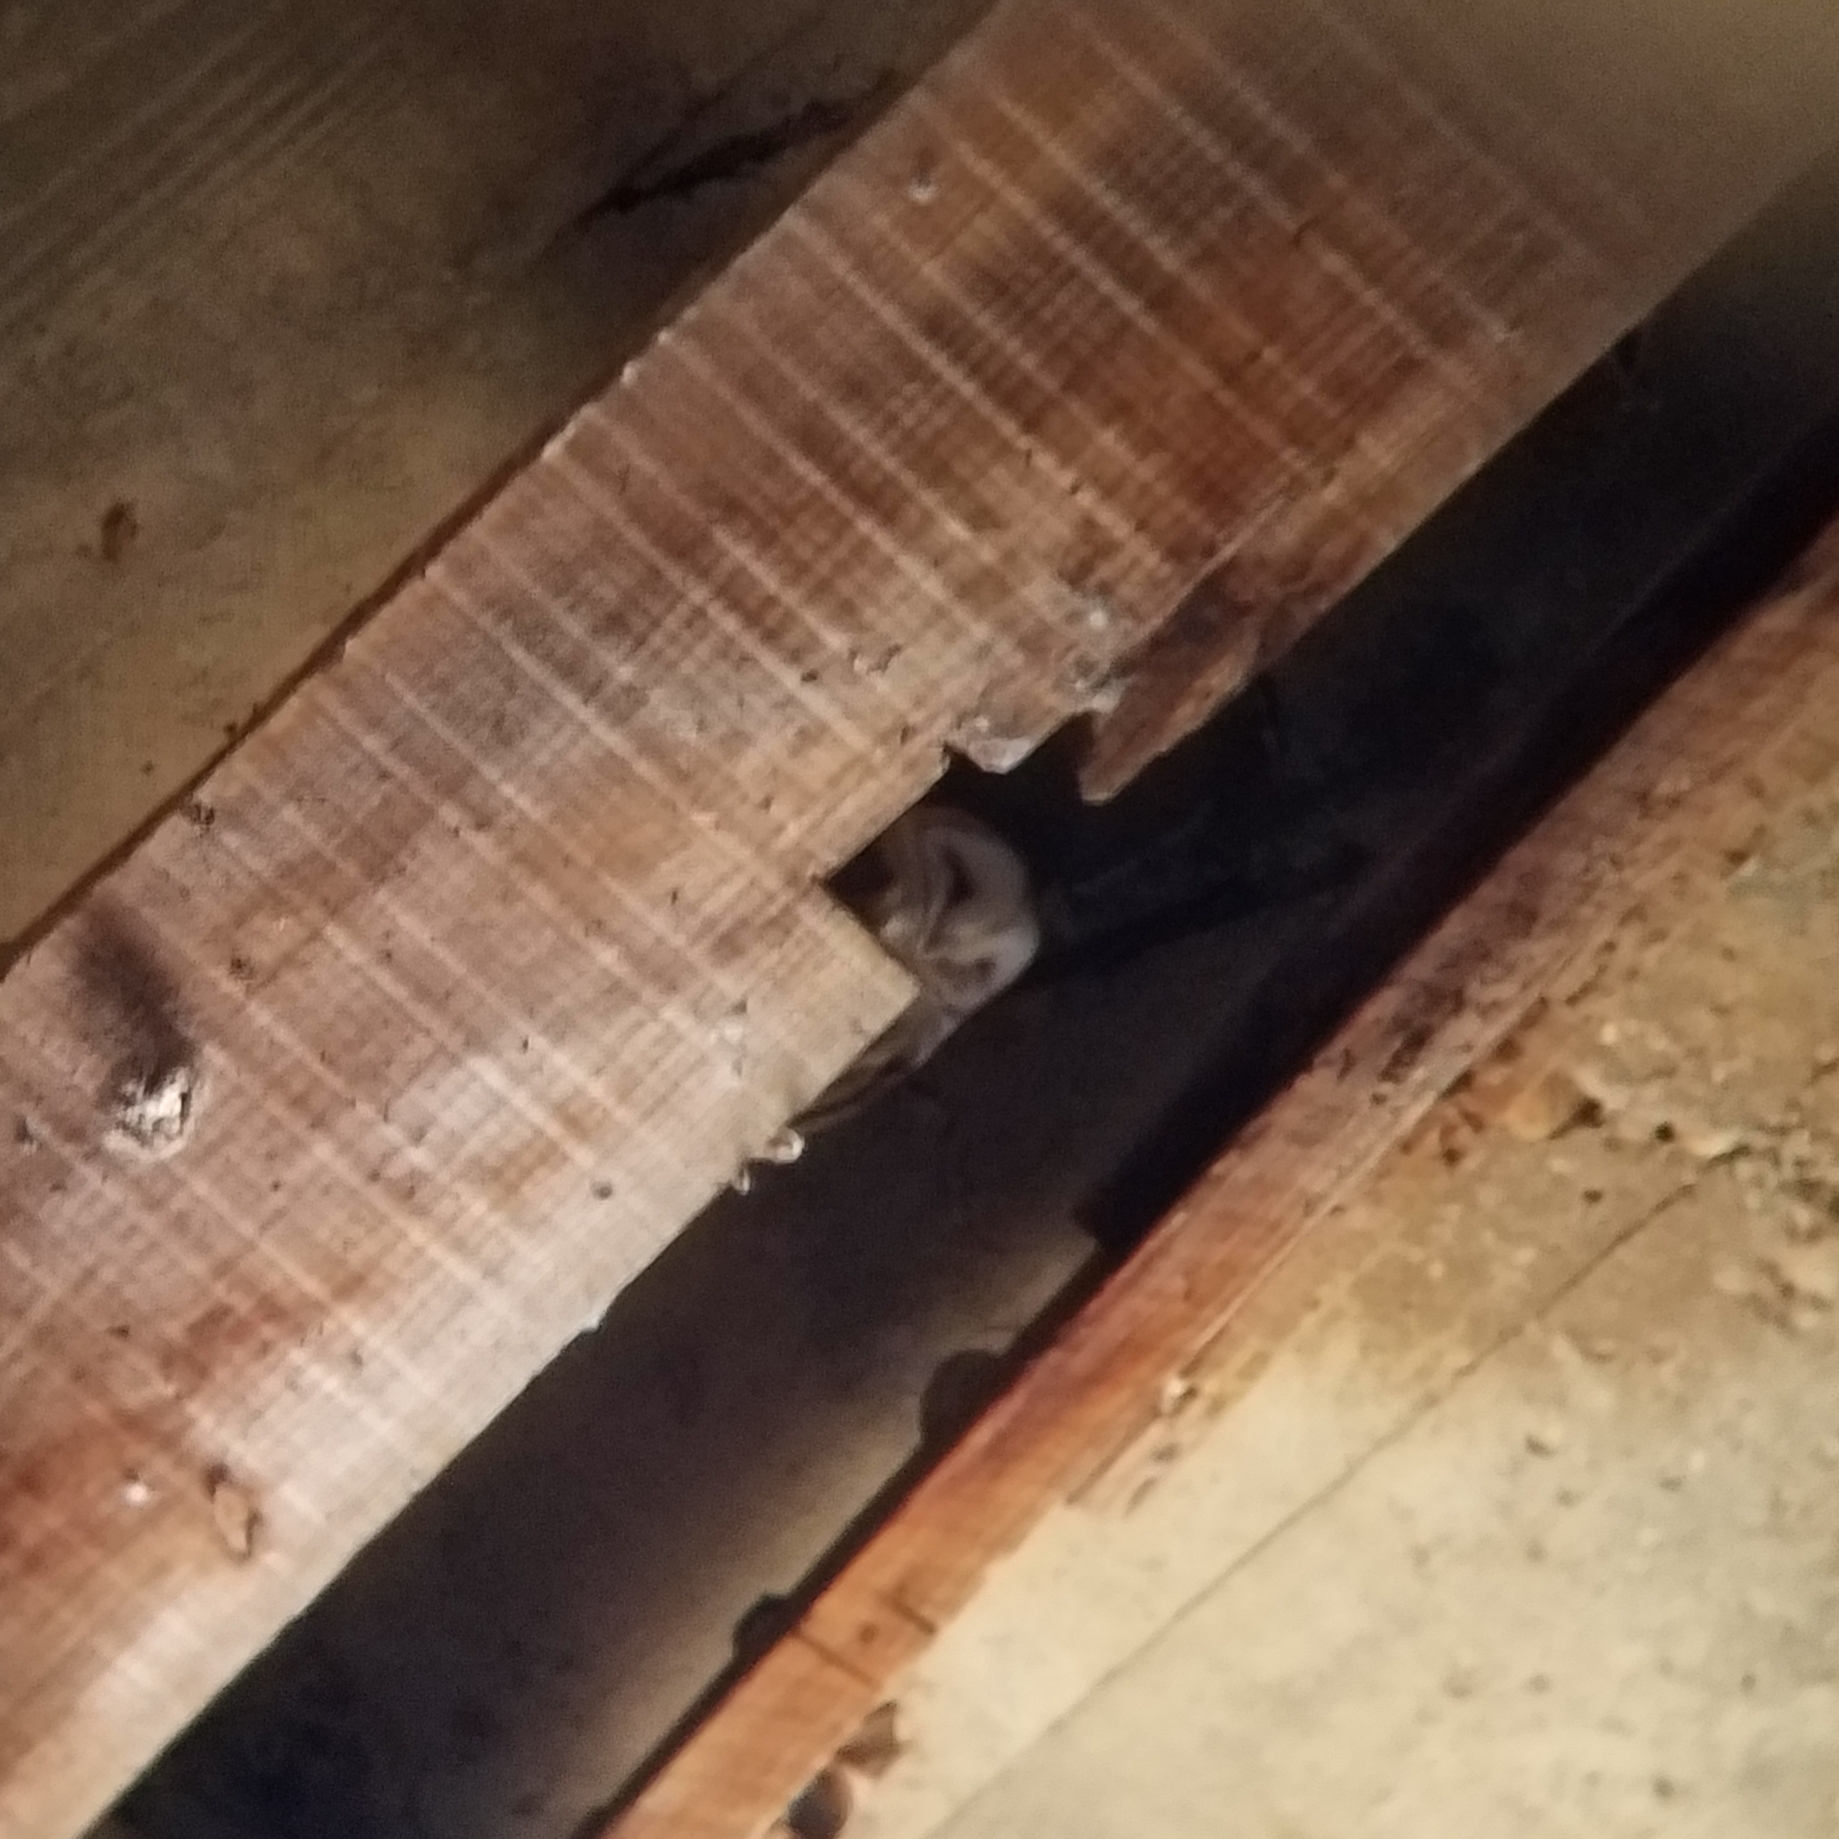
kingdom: Animalia
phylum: Chordata
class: Aves
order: Strigiformes
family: Tytonidae
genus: Tyto
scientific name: Tyto alba
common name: Barn owl
